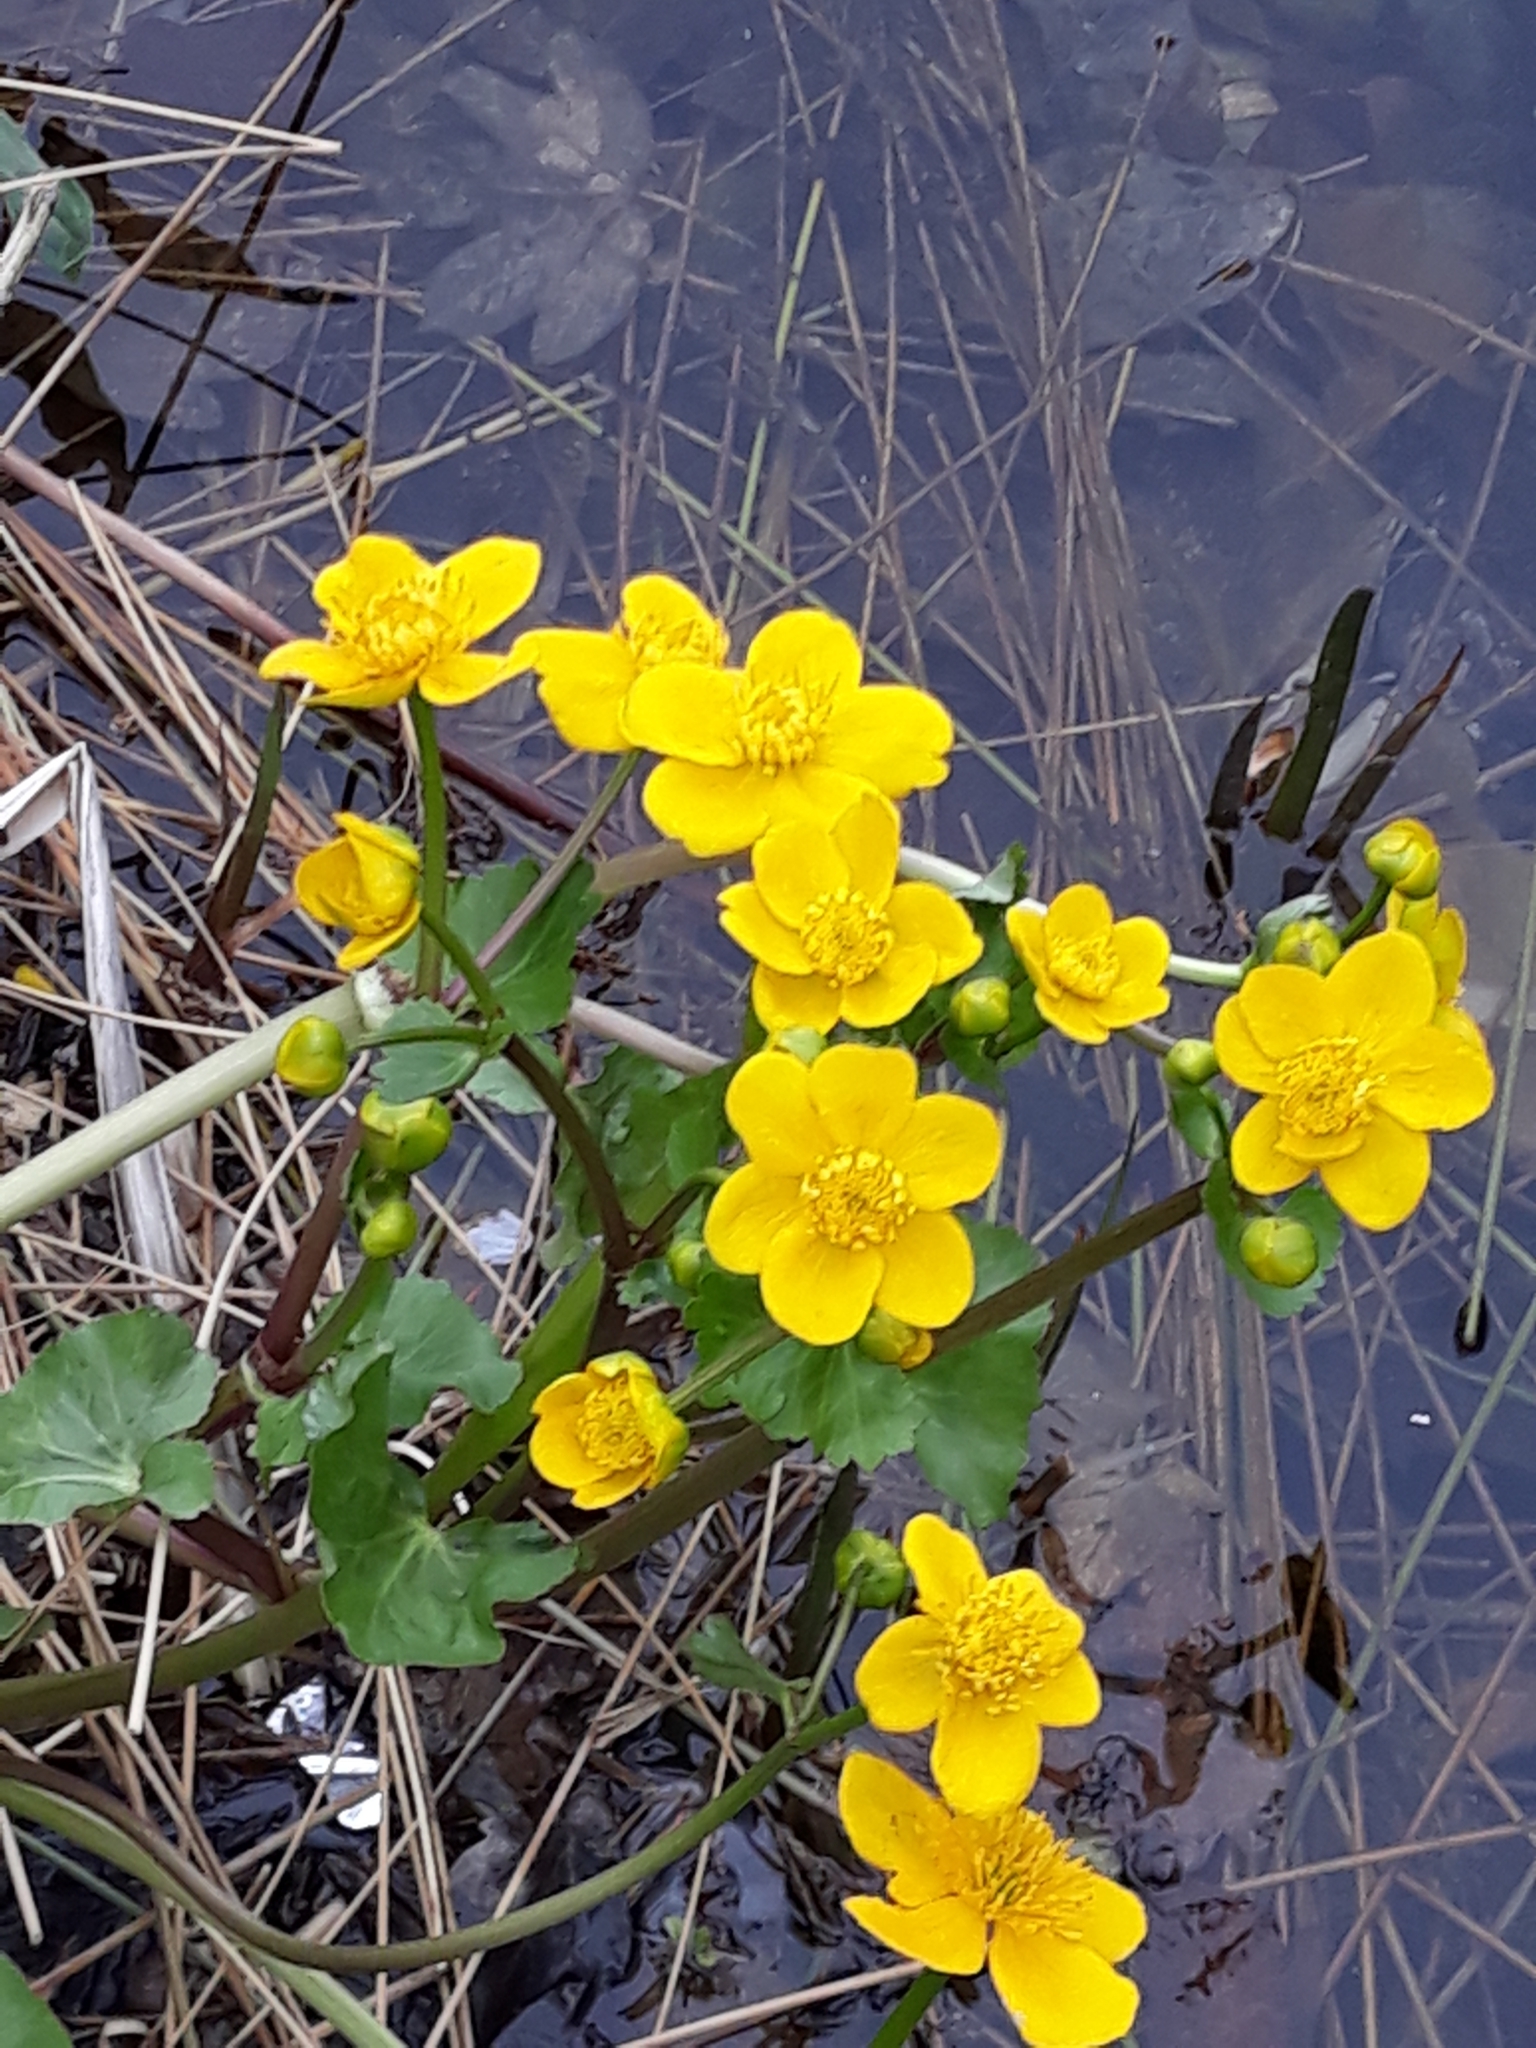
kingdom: Plantae
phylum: Tracheophyta
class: Magnoliopsida
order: Ranunculales
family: Ranunculaceae
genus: Caltha
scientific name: Caltha palustris
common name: Marsh marigold
